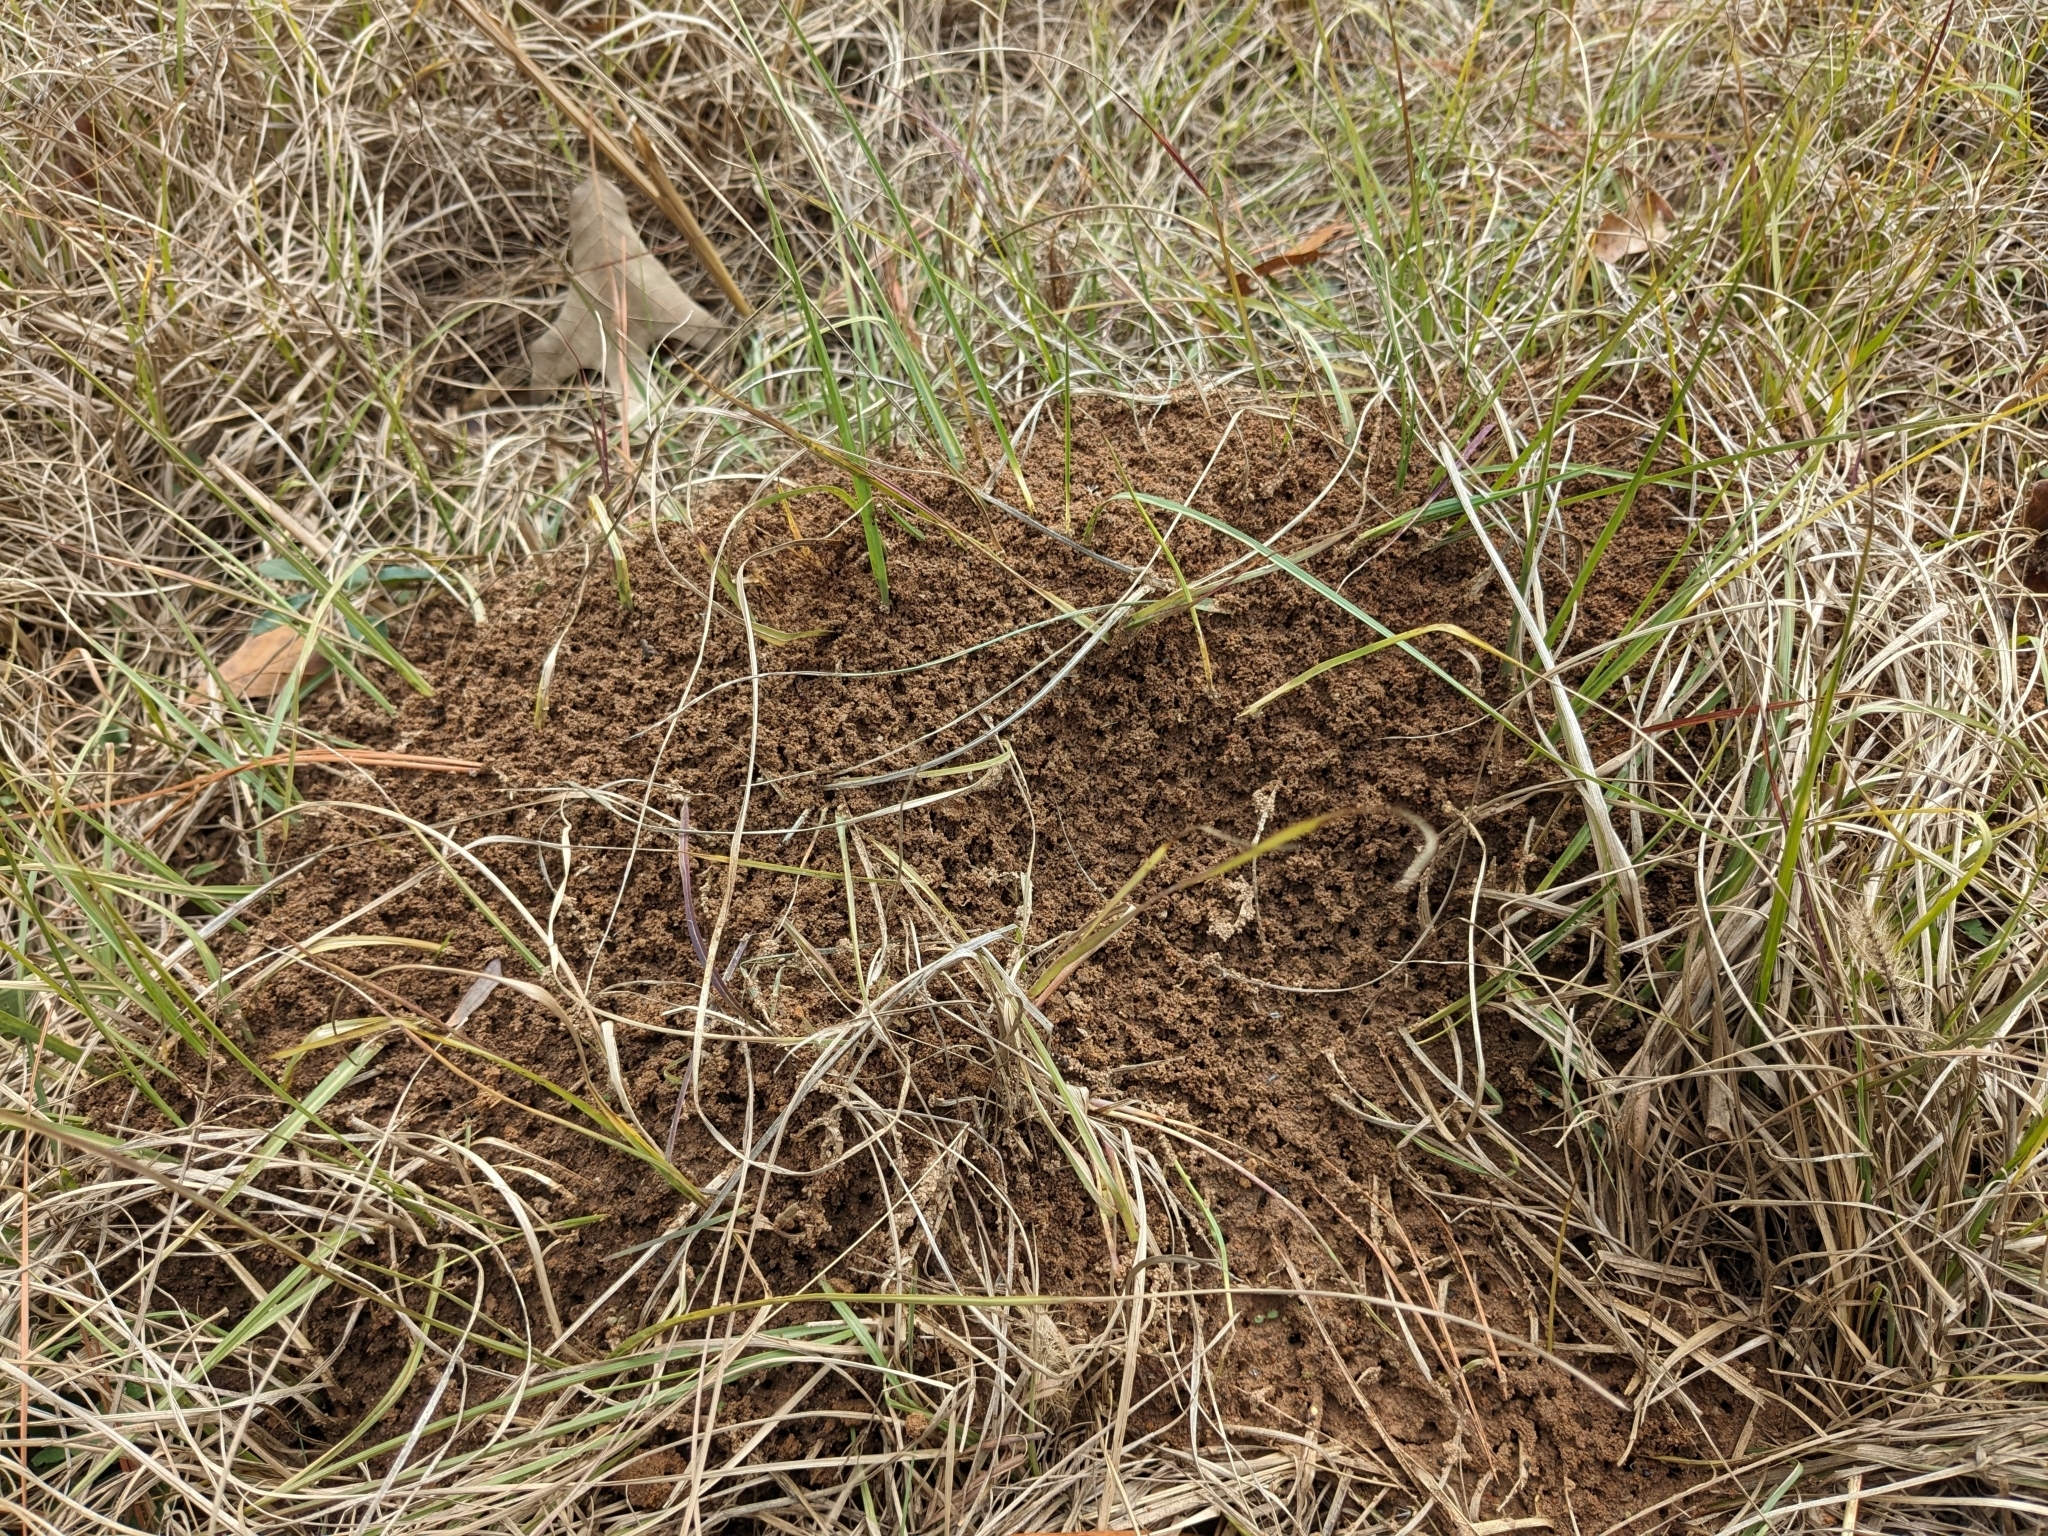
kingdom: Animalia
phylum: Arthropoda
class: Insecta
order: Hymenoptera
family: Formicidae
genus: Solenopsis
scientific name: Solenopsis invicta
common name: Red imported fire ant
